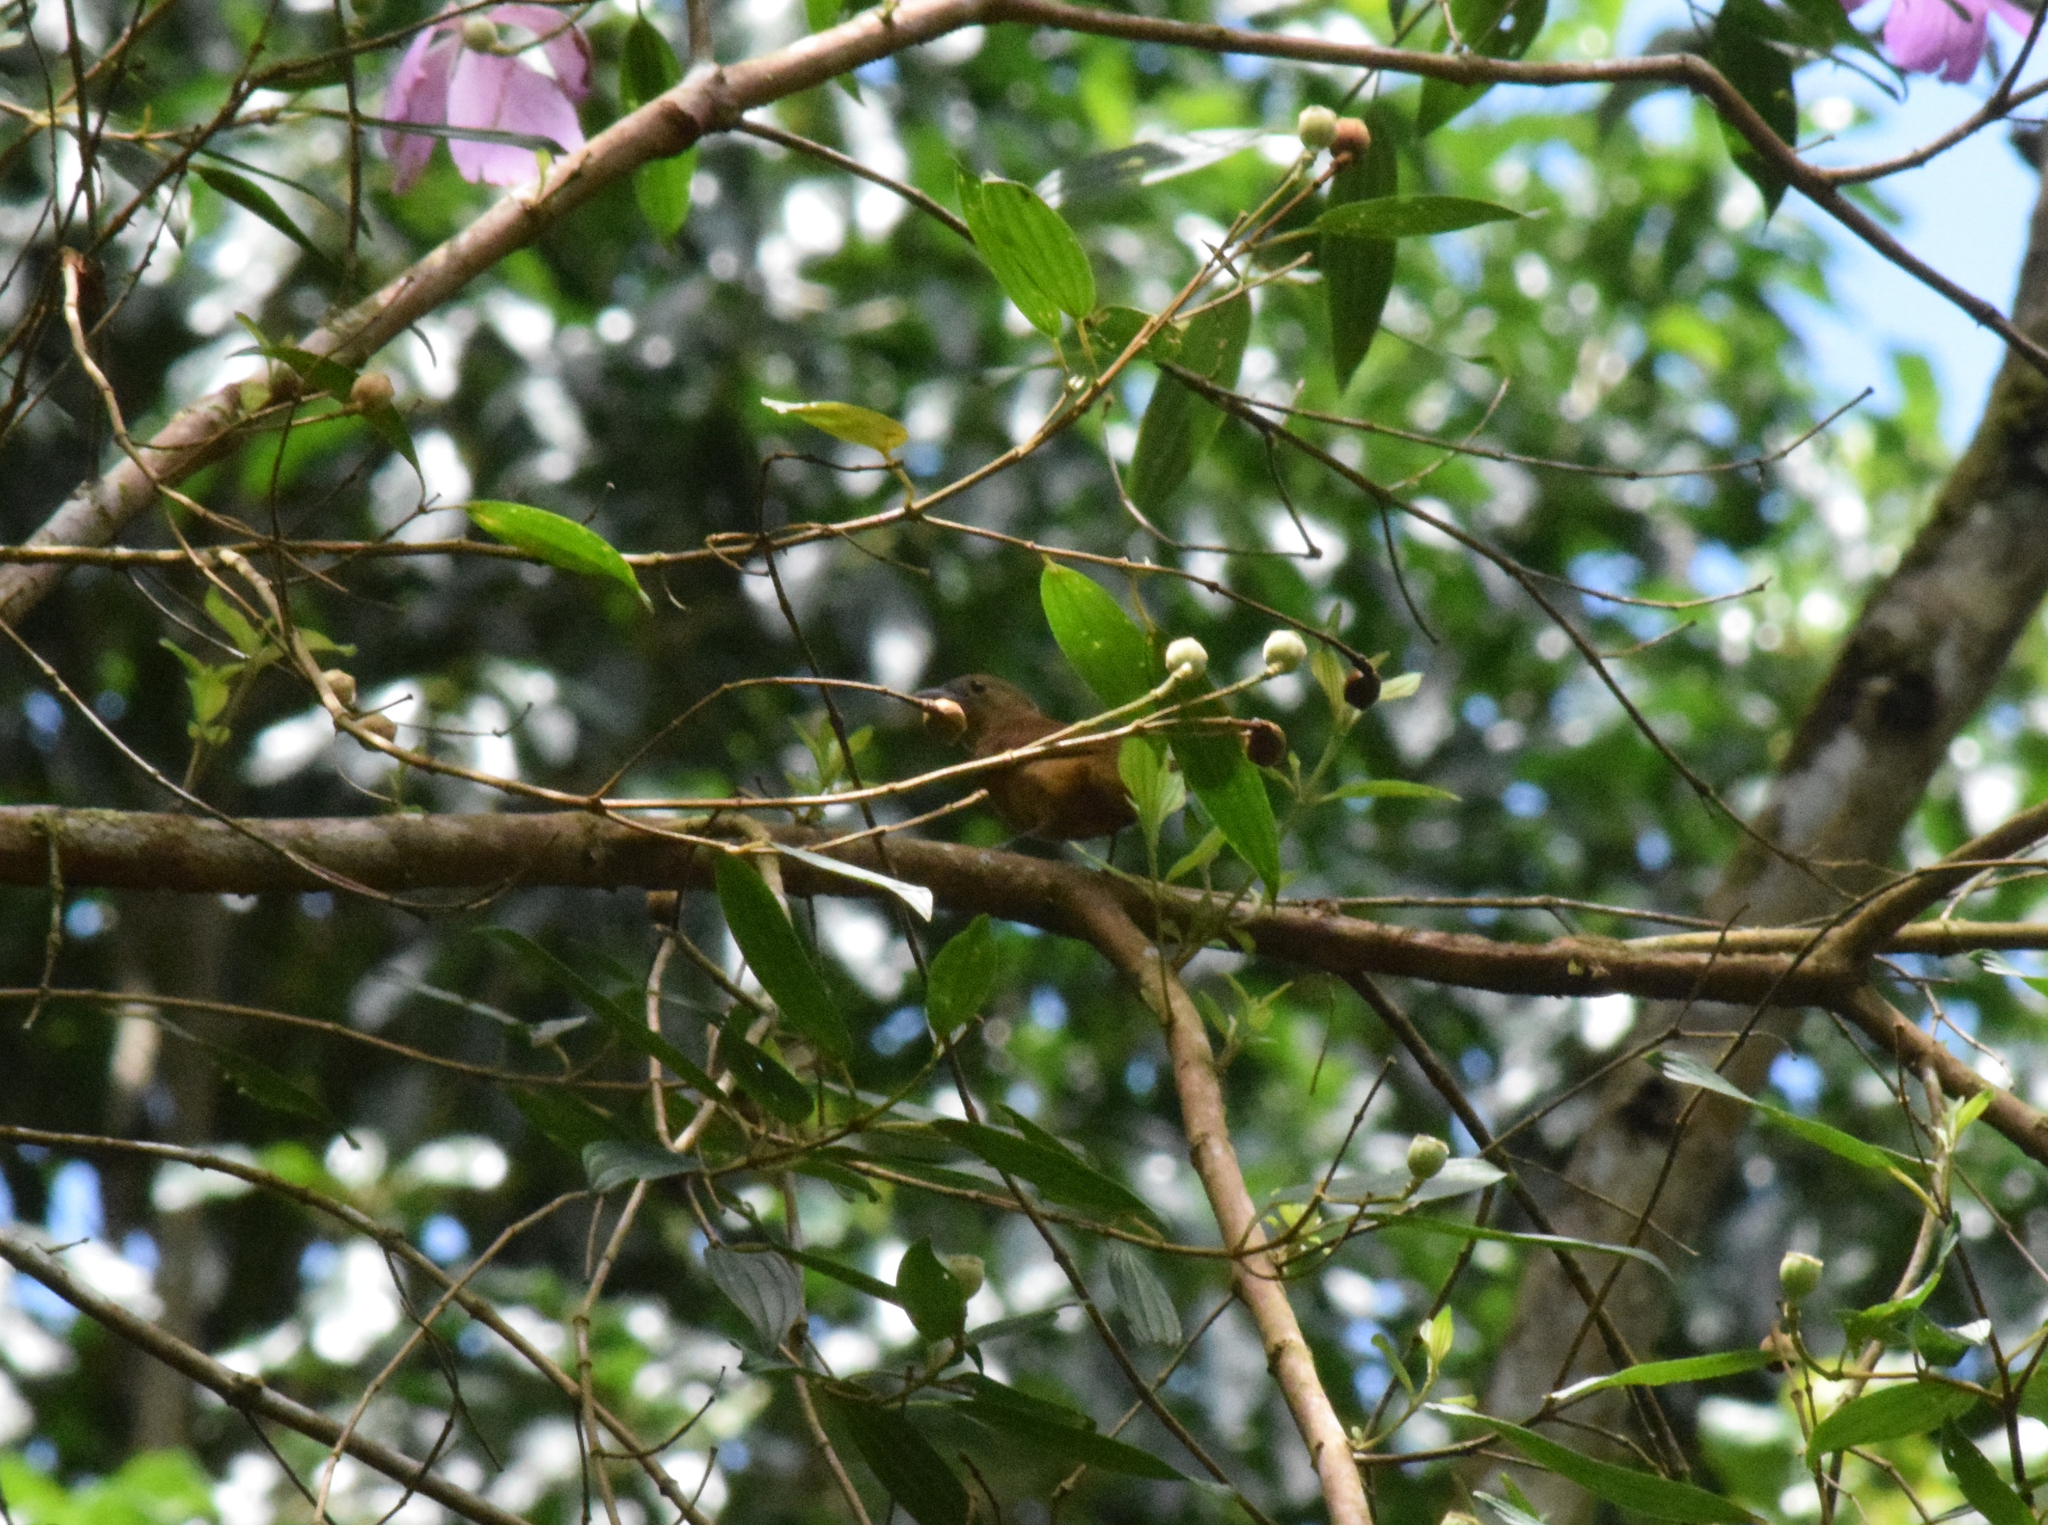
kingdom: Animalia
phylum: Chordata
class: Aves
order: Passeriformes
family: Cotingidae
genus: Pachyramphus
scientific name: Pachyramphus validus
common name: Crested becard
